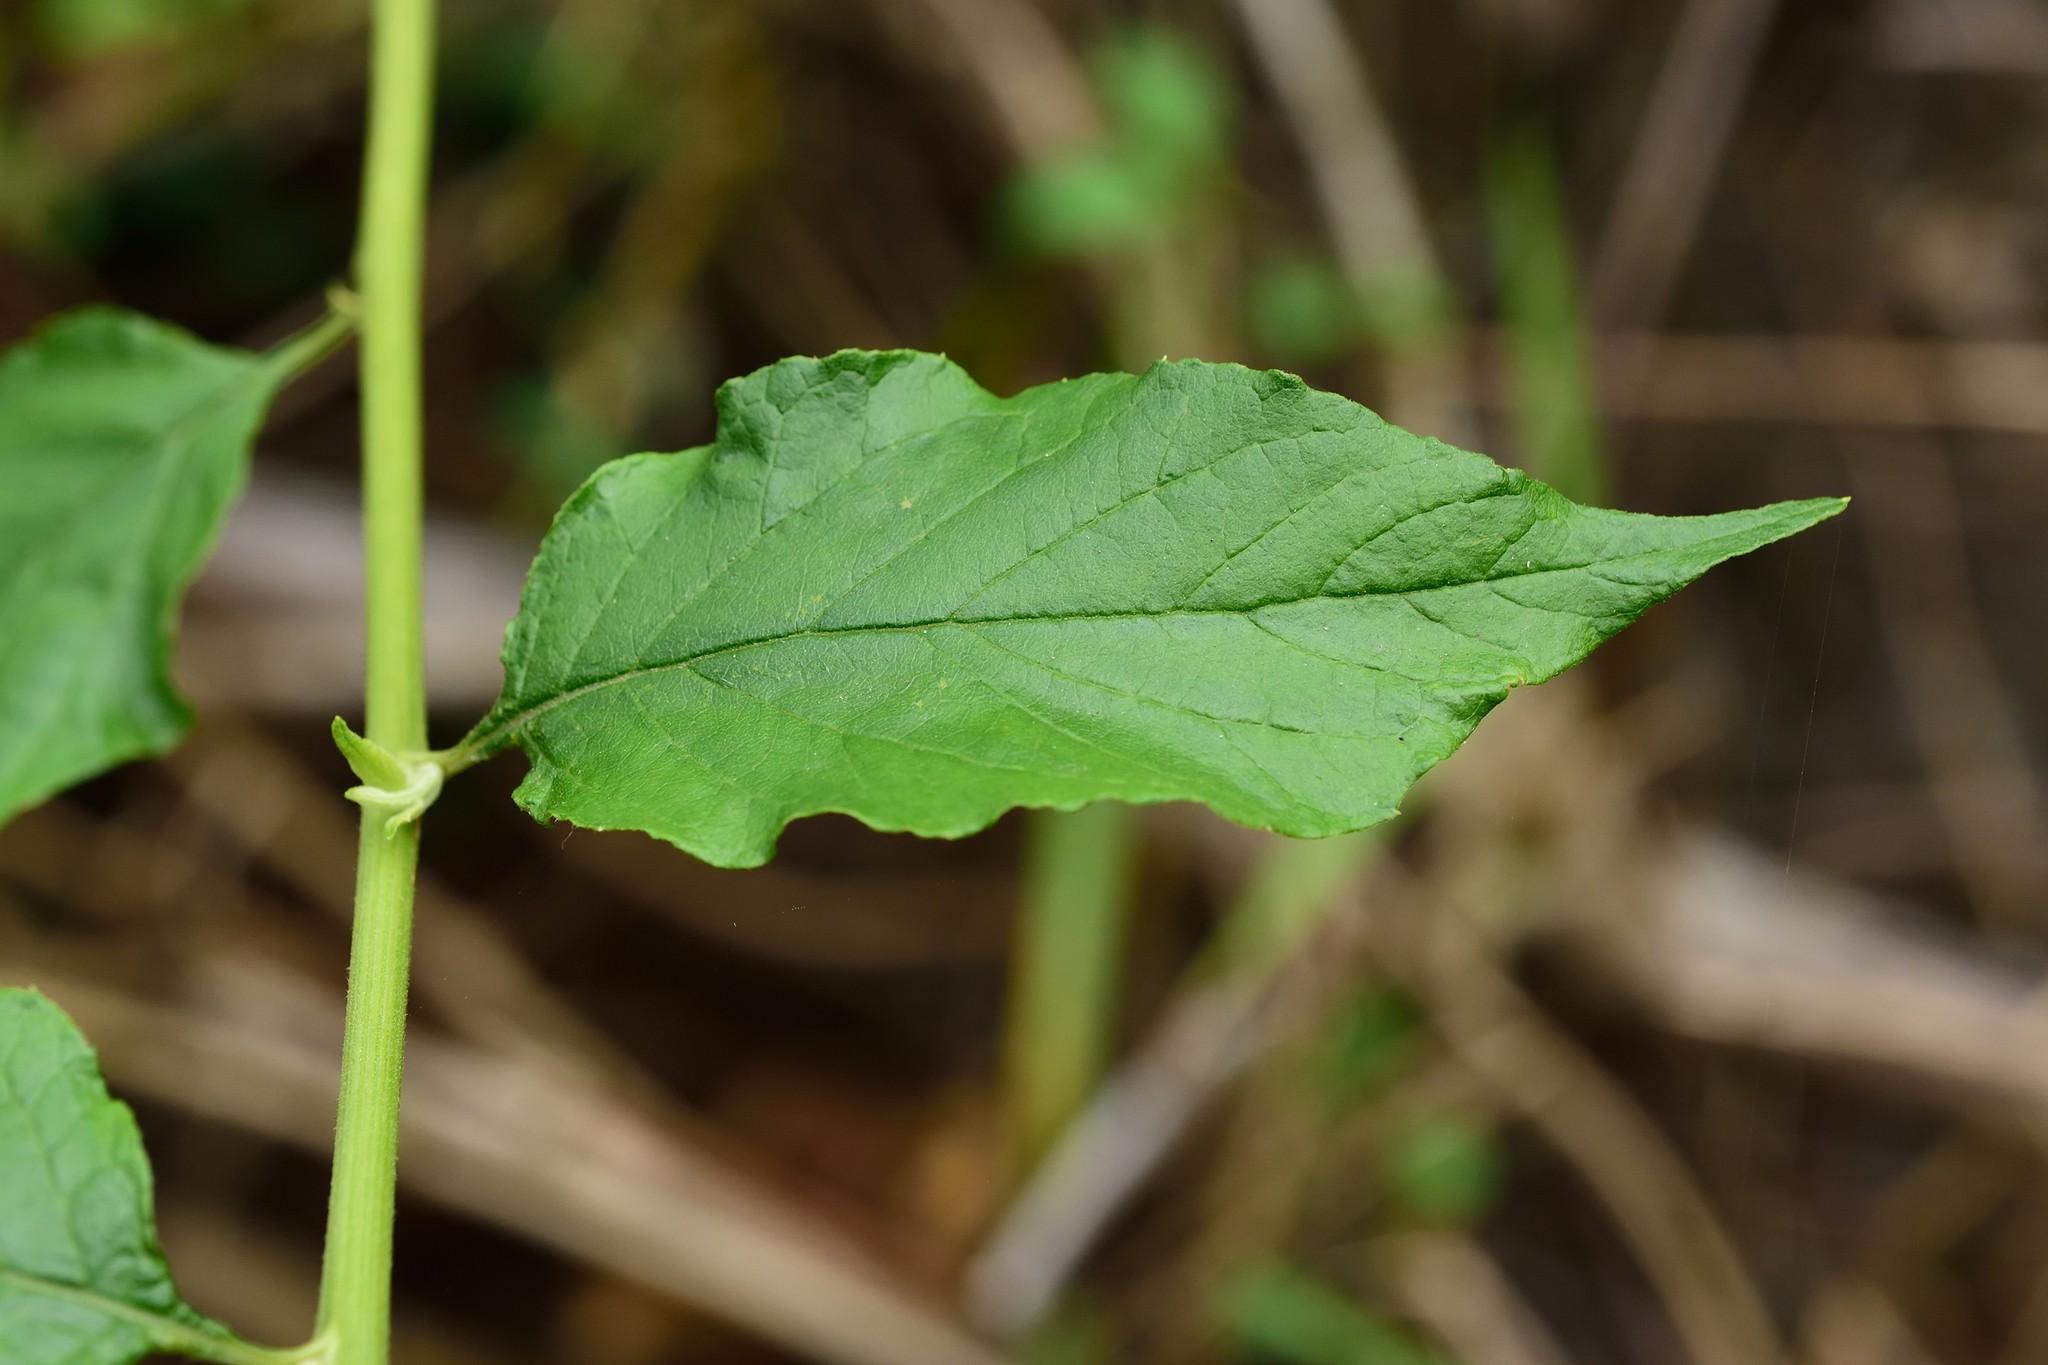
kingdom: Plantae
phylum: Tracheophyta
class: Magnoliopsida
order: Asterales
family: Asteraceae
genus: Microglossa
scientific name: Microglossa pyrifolia
